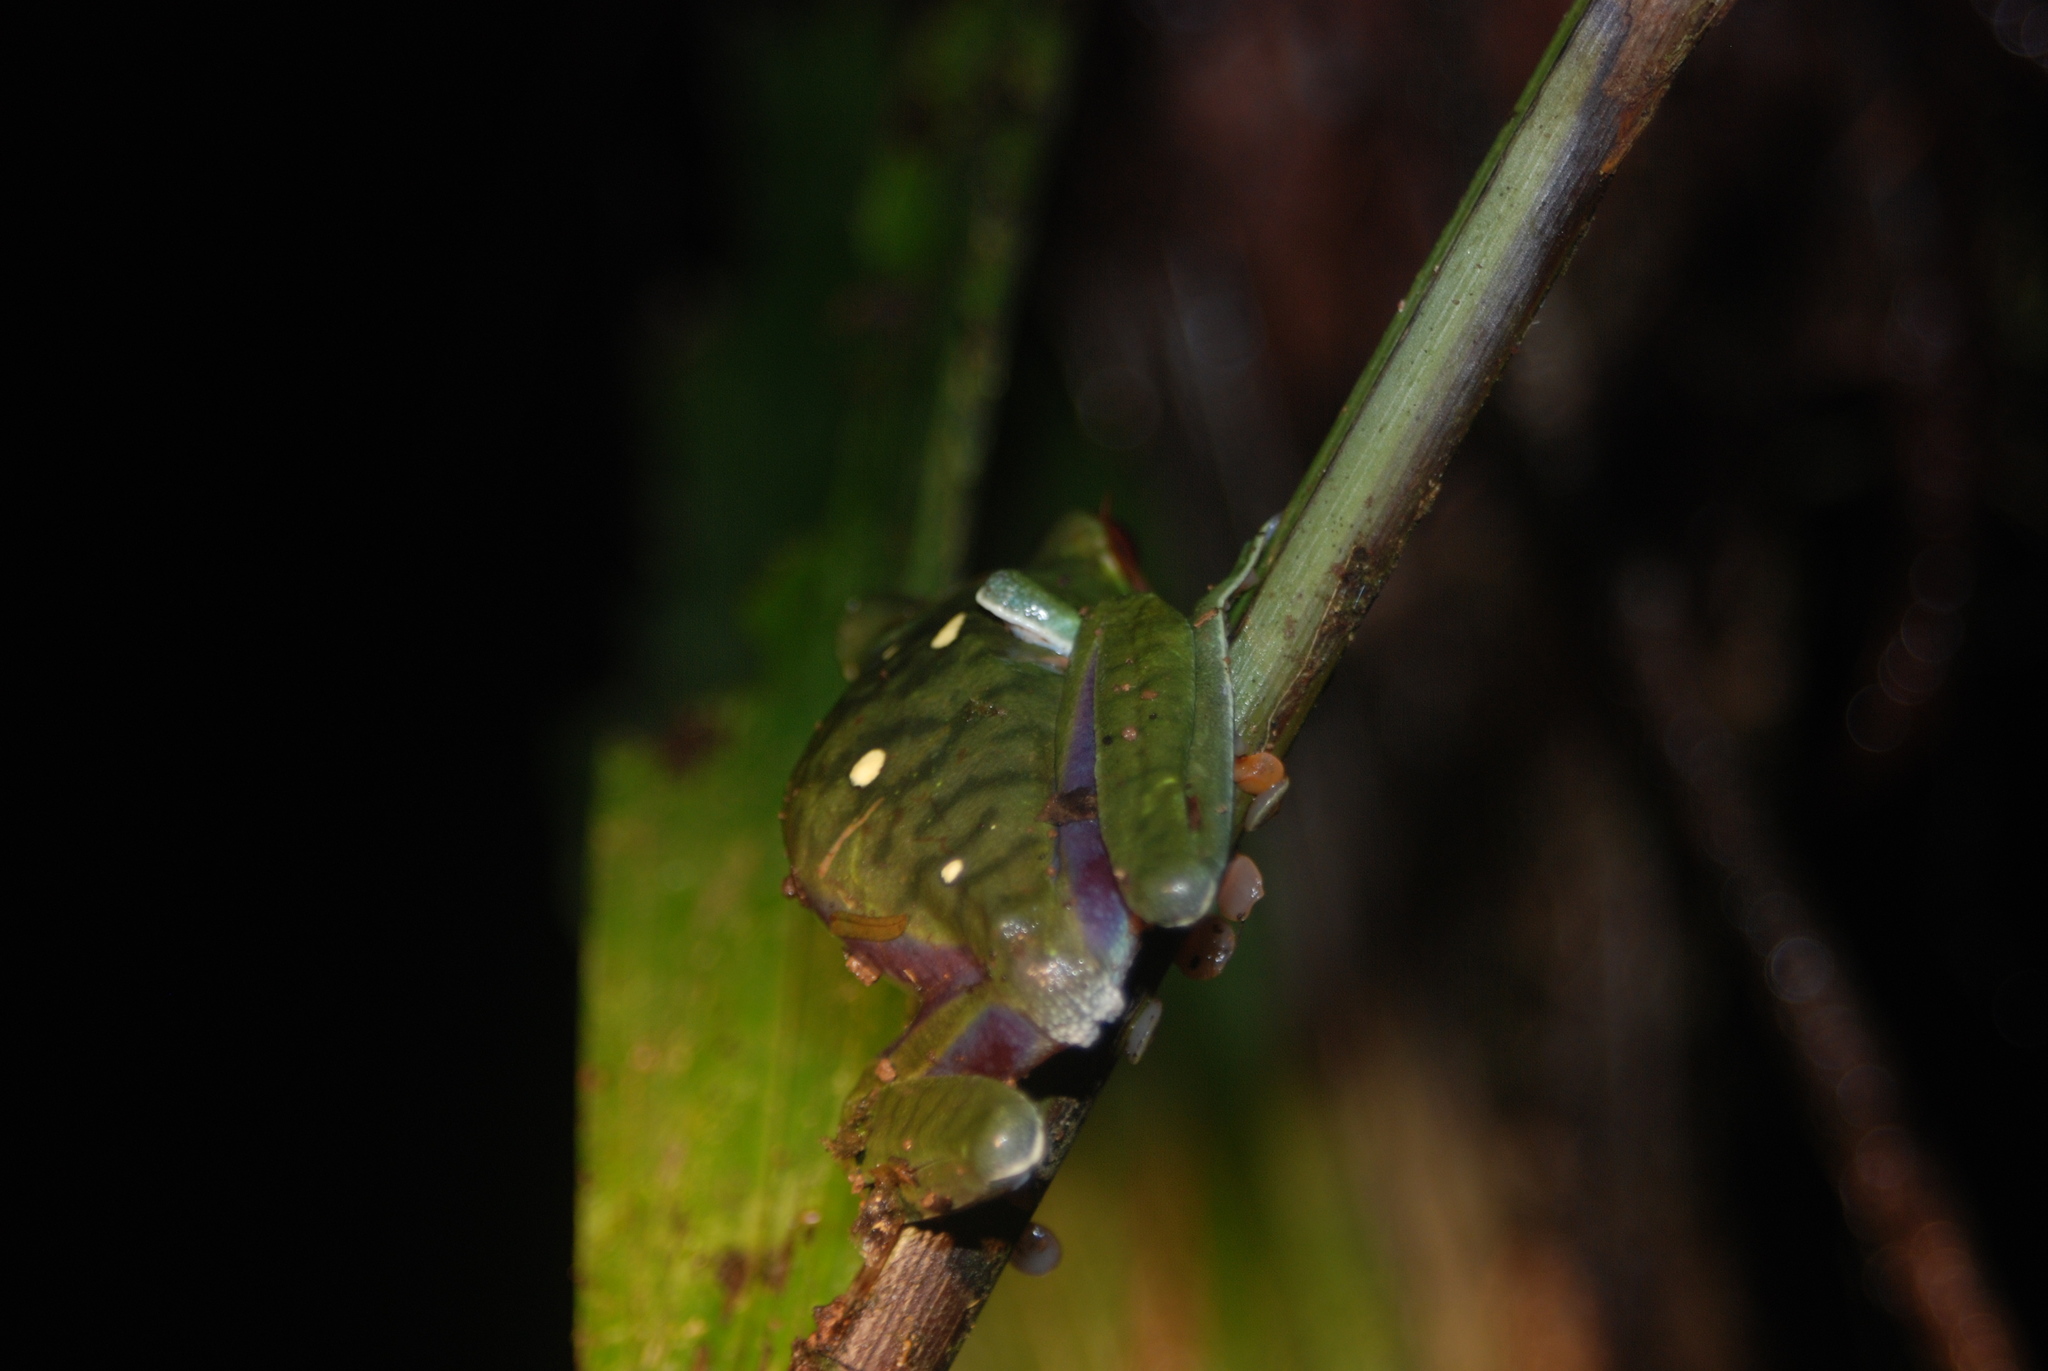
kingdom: Animalia
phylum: Chordata
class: Amphibia
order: Anura
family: Phyllomedusidae
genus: Agalychnis
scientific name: Agalychnis saltator
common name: Misfit leaf frog
